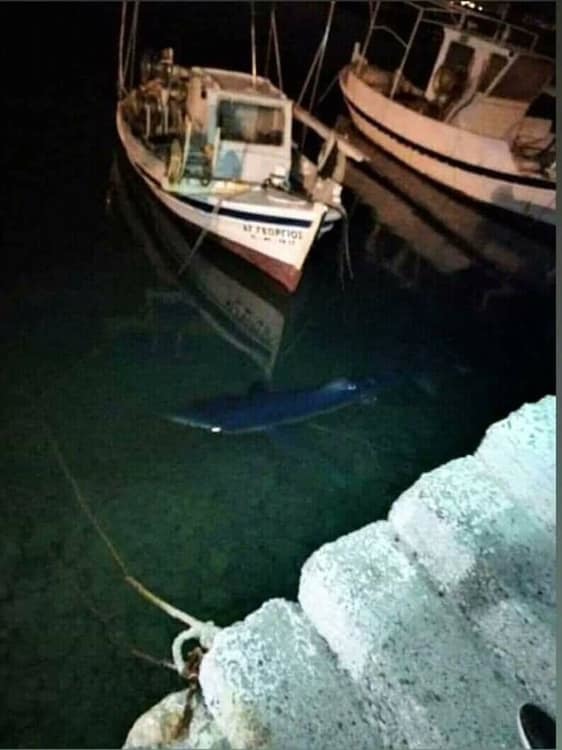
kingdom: Animalia
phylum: Chordata
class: Elasmobranchii
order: Carcharhiniformes
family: Carcharhinidae
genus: Prionace
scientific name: Prionace glauca
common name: Blue shark
